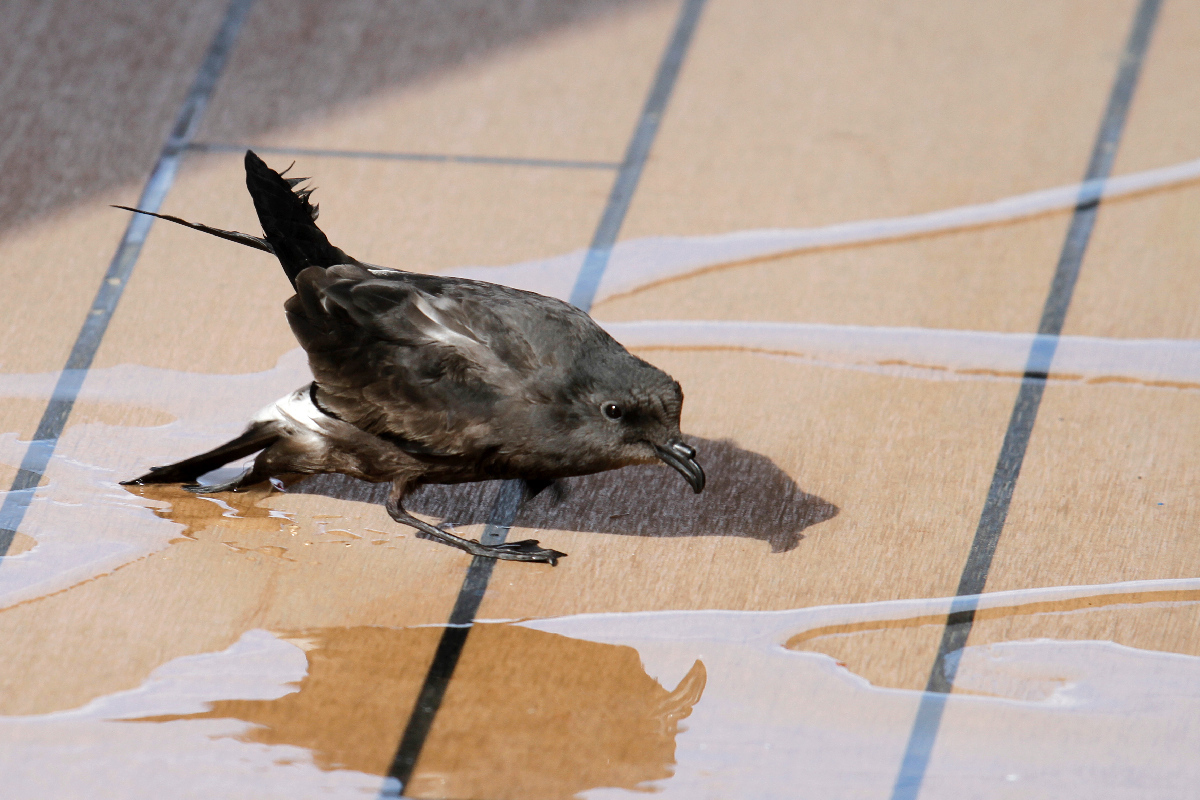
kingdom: Animalia
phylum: Chordata
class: Aves
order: Procellariiformes
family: Hydrobatidae
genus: Oceanodroma
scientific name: Oceanodroma leucorhoa
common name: Leach's storm-petrel
